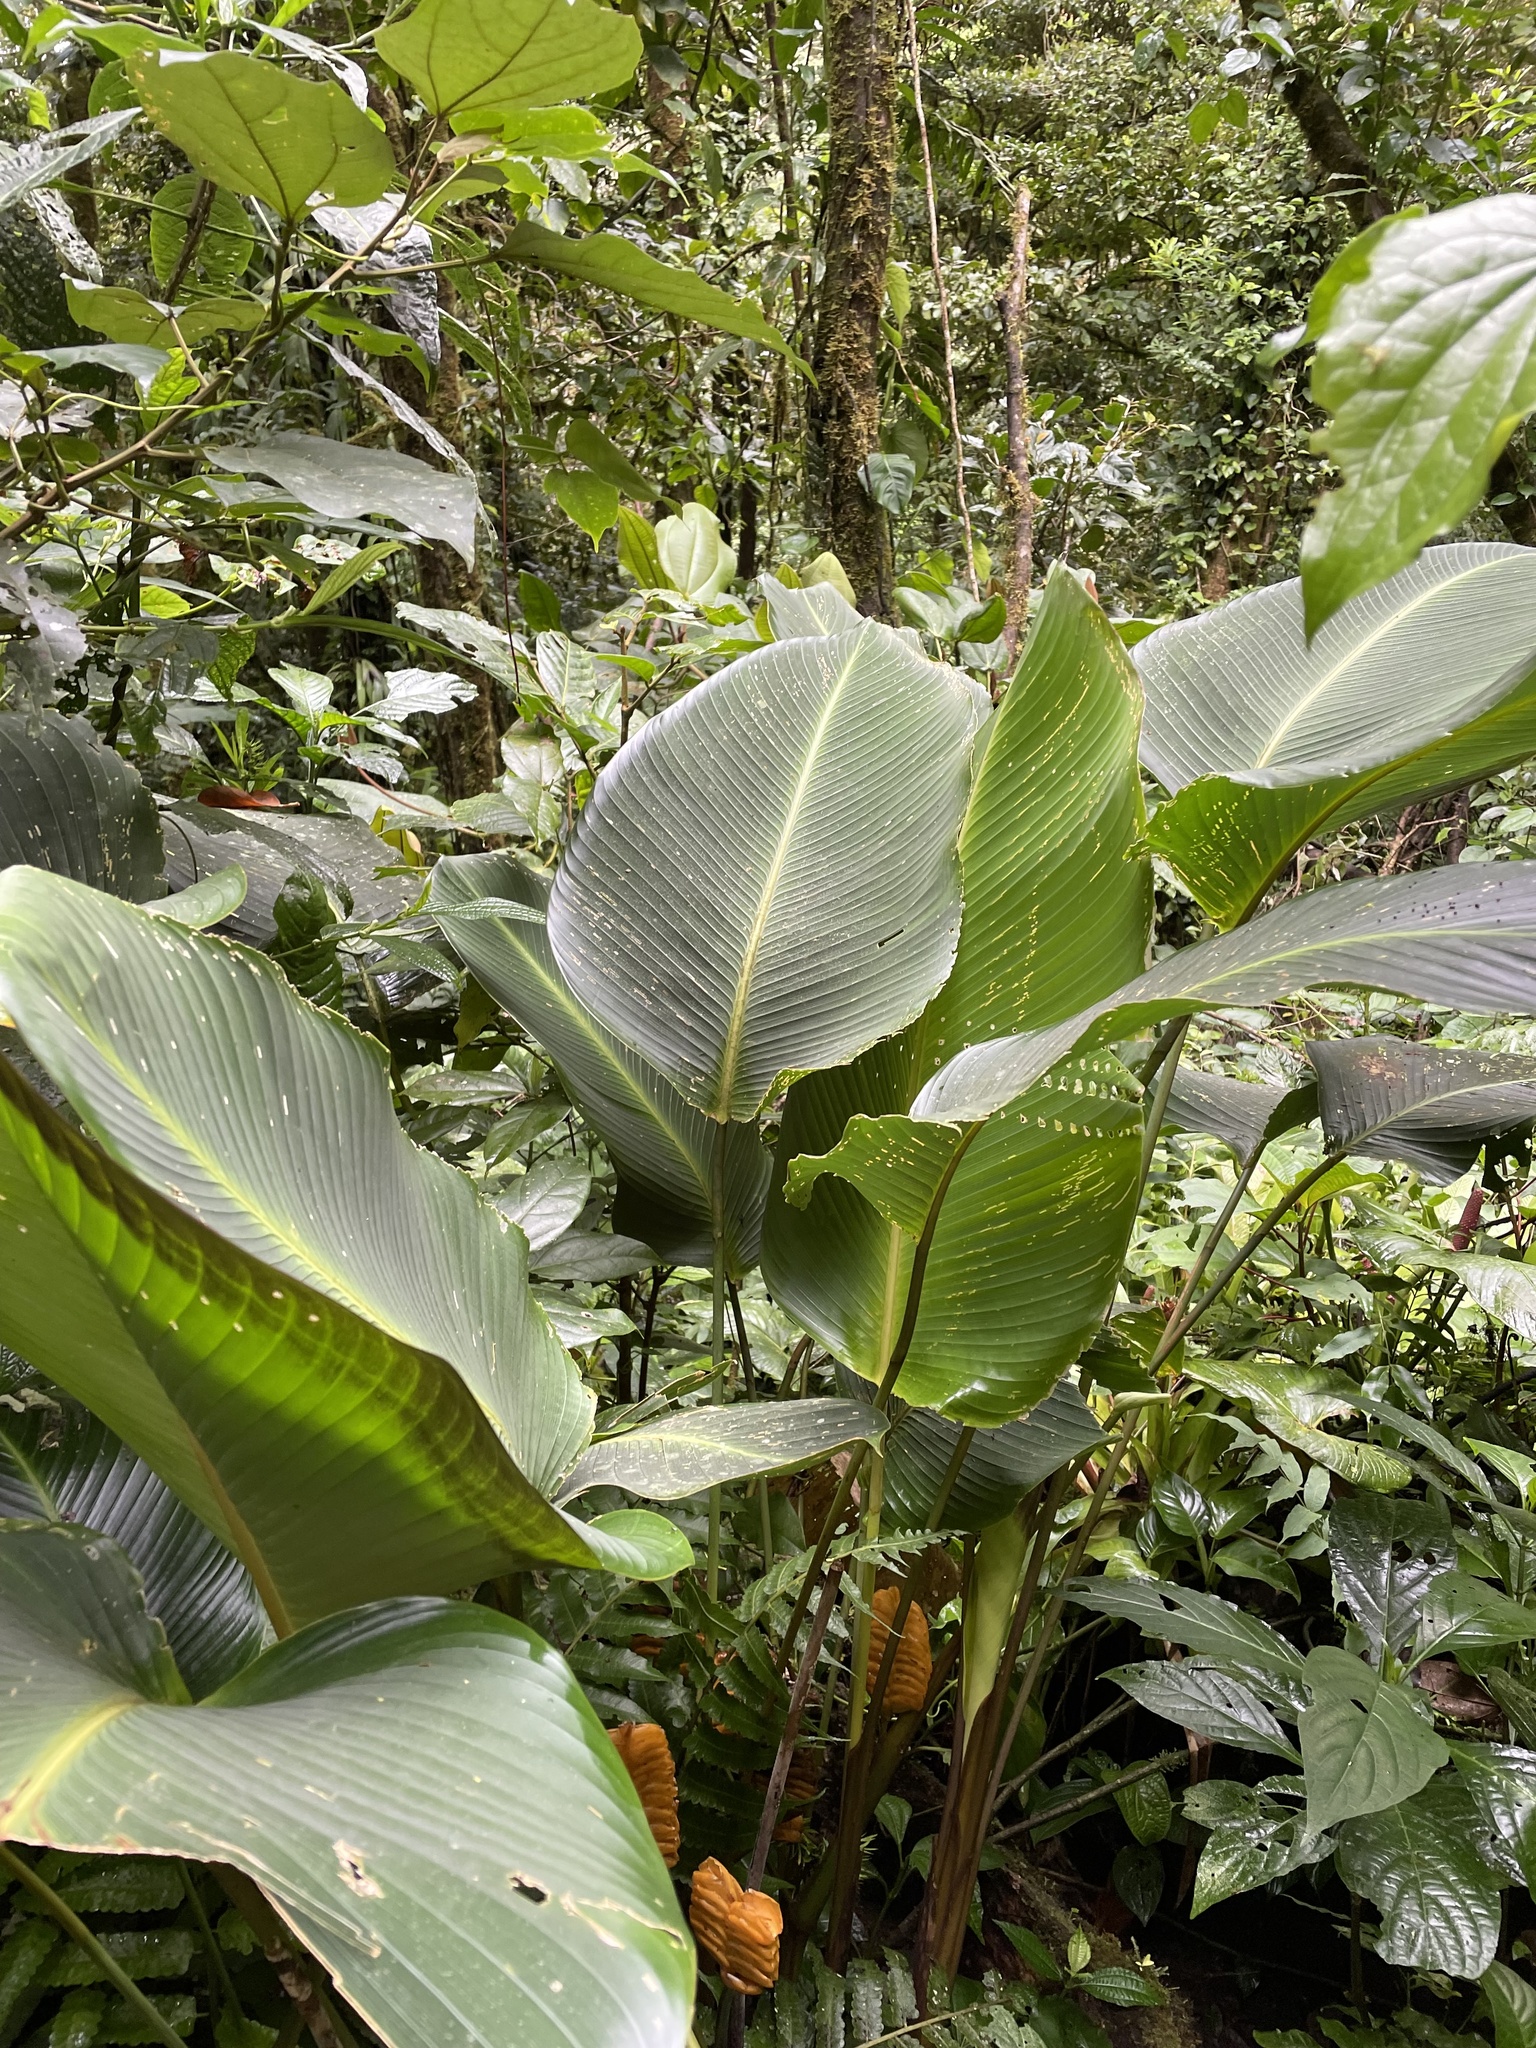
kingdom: Plantae
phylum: Tracheophyta
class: Liliopsida
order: Zingiberales
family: Marantaceae
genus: Calathea
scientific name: Calathea crotalifera
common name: Rattlesnake plant
